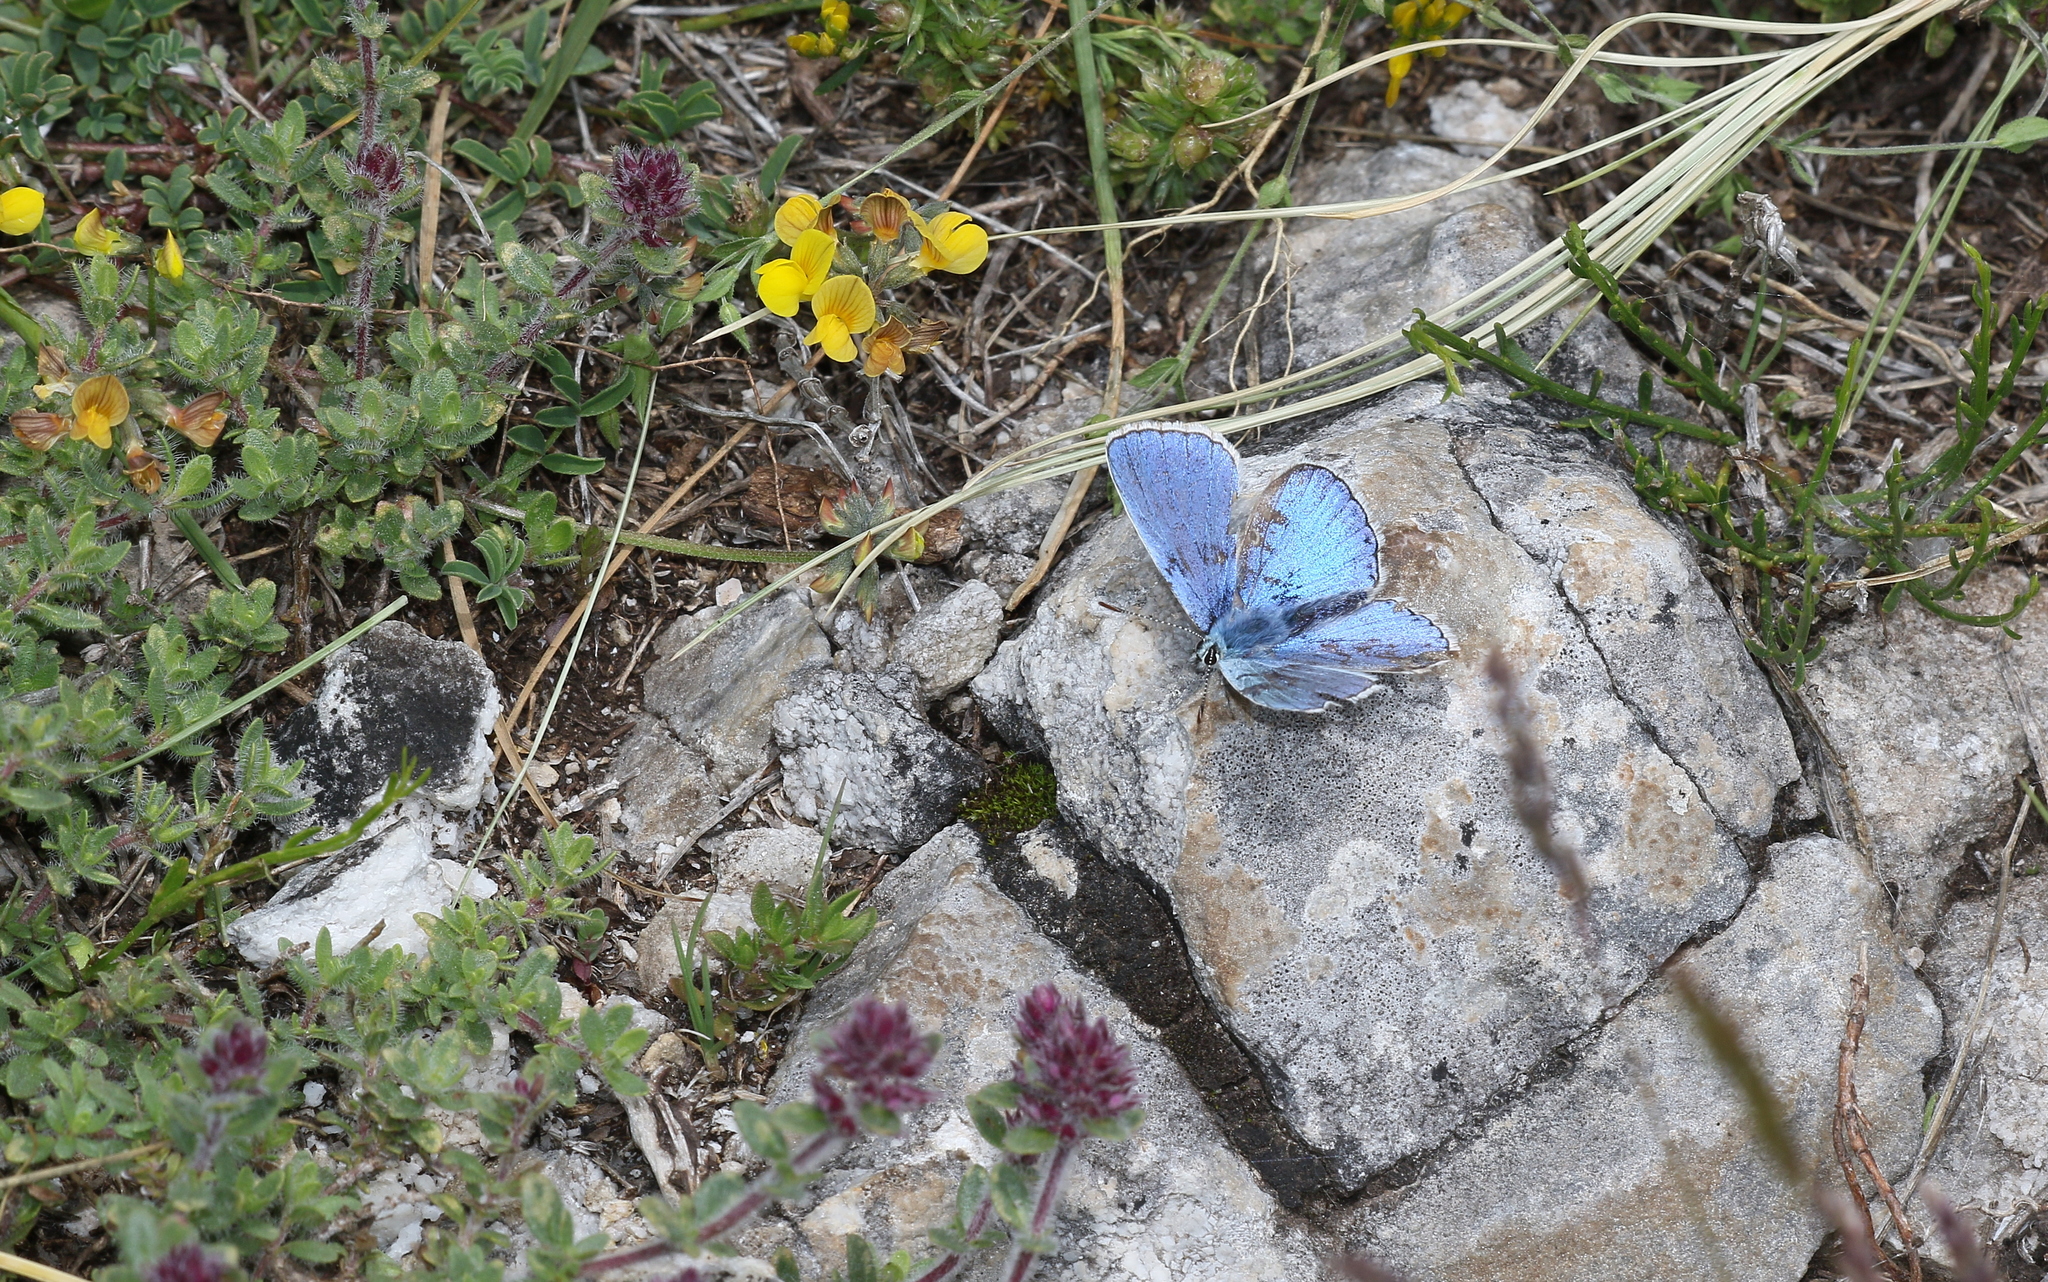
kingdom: Animalia
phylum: Arthropoda
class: Insecta
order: Lepidoptera
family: Lycaenidae
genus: Lysandra
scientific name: Lysandra bellargus
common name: Adonis blue
